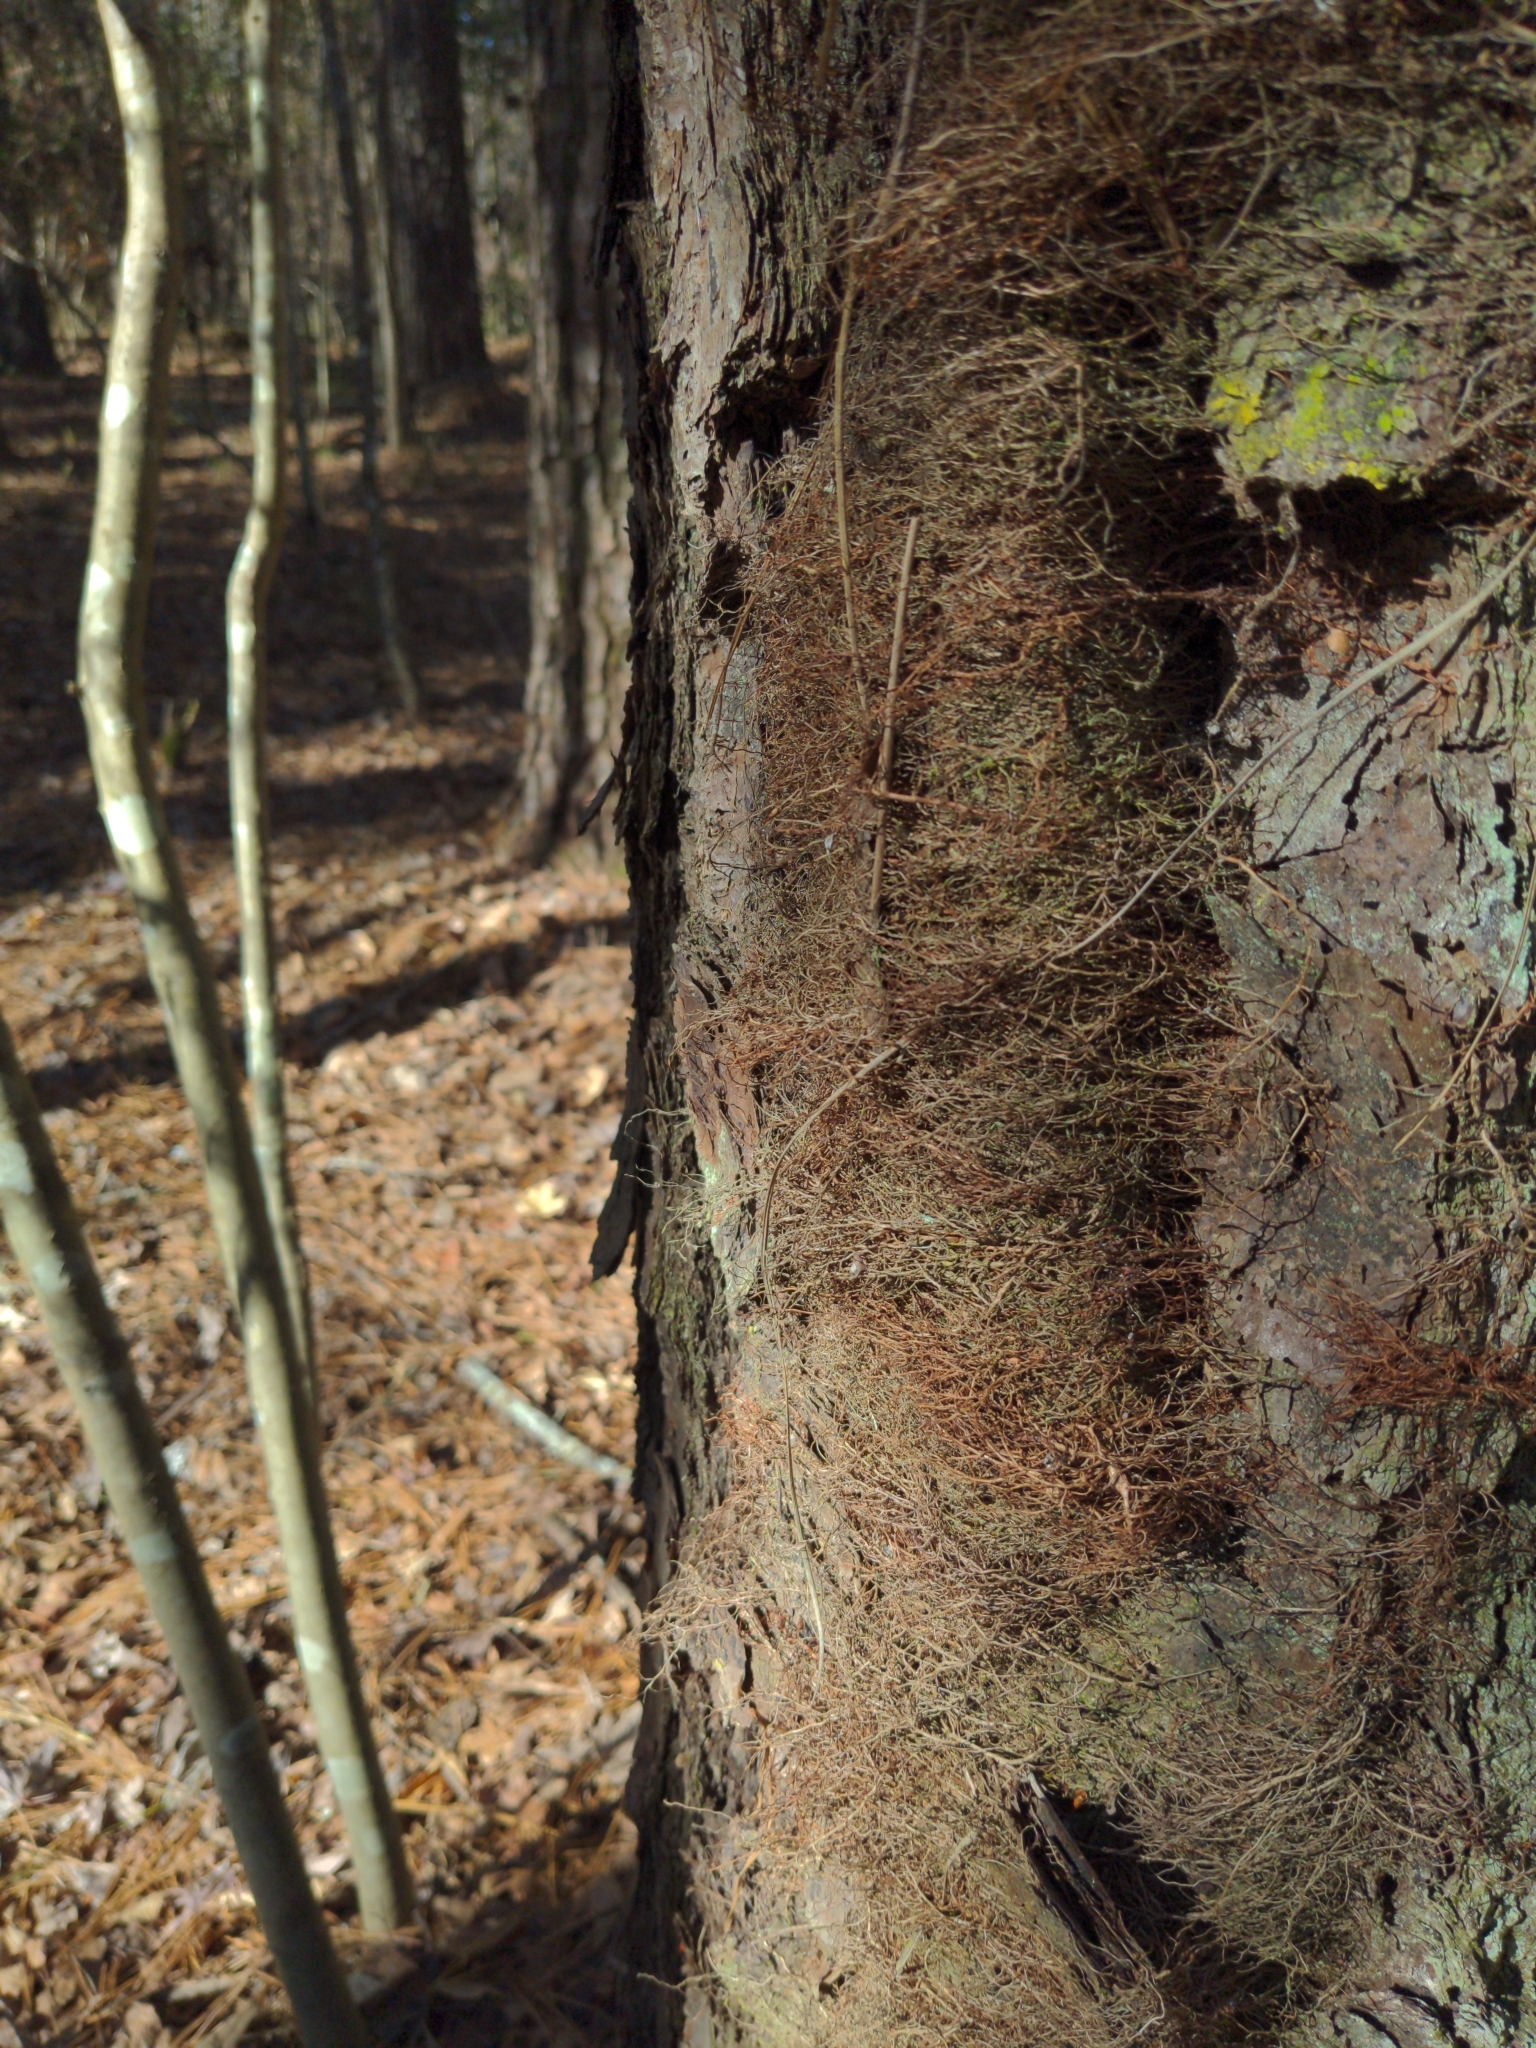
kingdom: Plantae
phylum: Tracheophyta
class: Magnoliopsida
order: Sapindales
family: Anacardiaceae
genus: Toxicodendron
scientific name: Toxicodendron radicans
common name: Poison ivy
